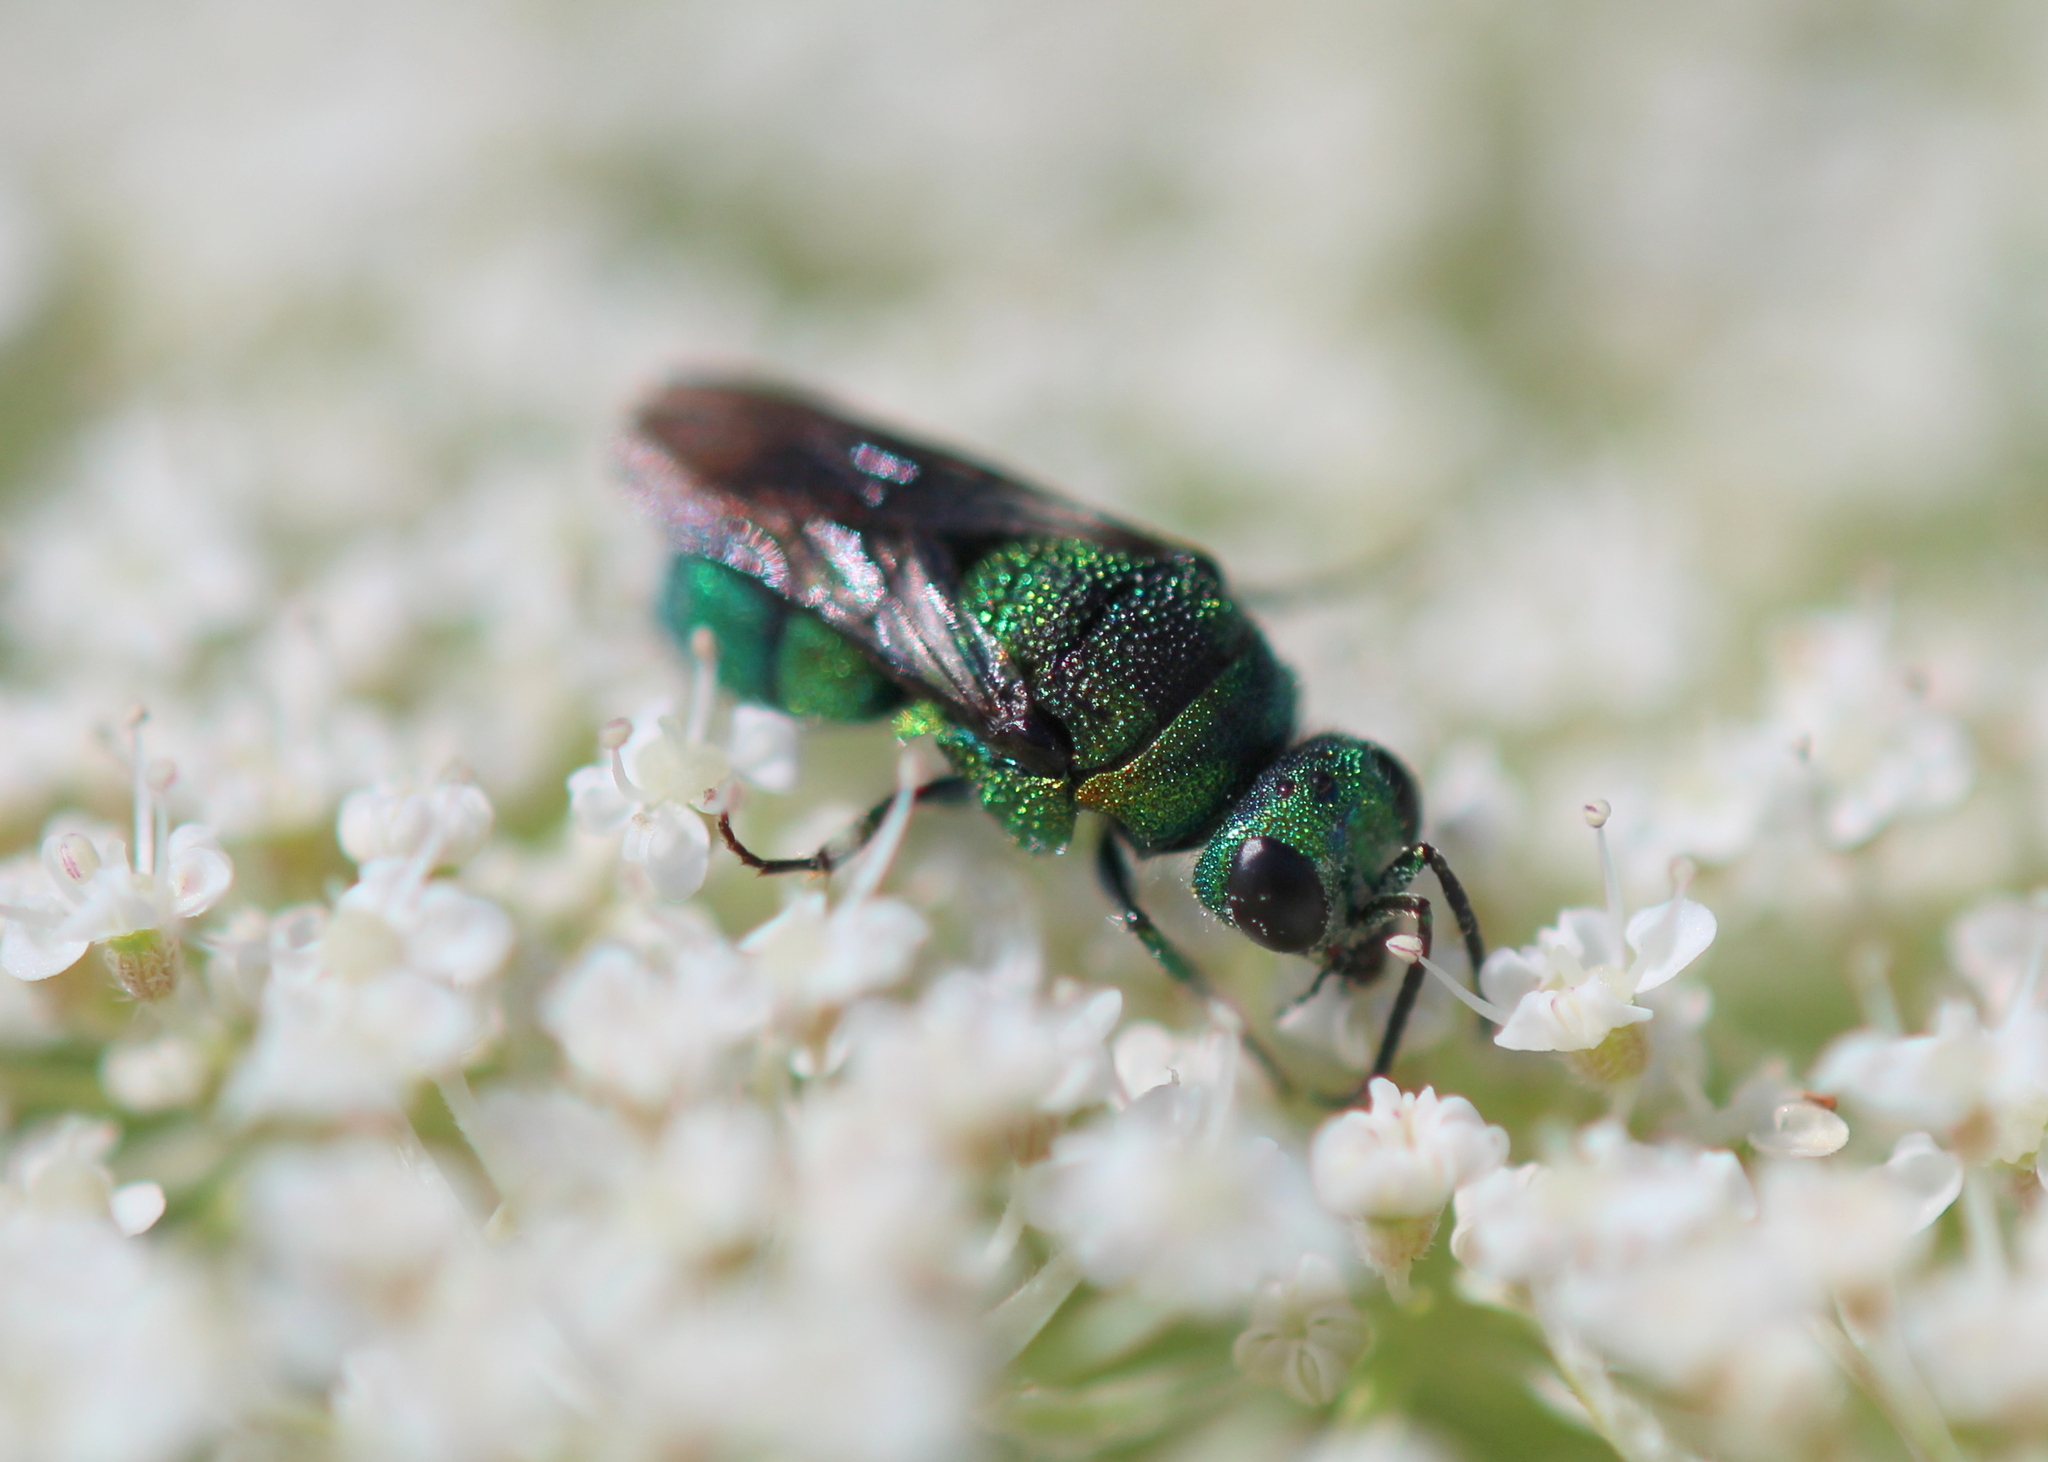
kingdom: Animalia
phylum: Arthropoda
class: Insecta
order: Hymenoptera
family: Chrysididae
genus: Holopyga
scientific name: Holopyga
